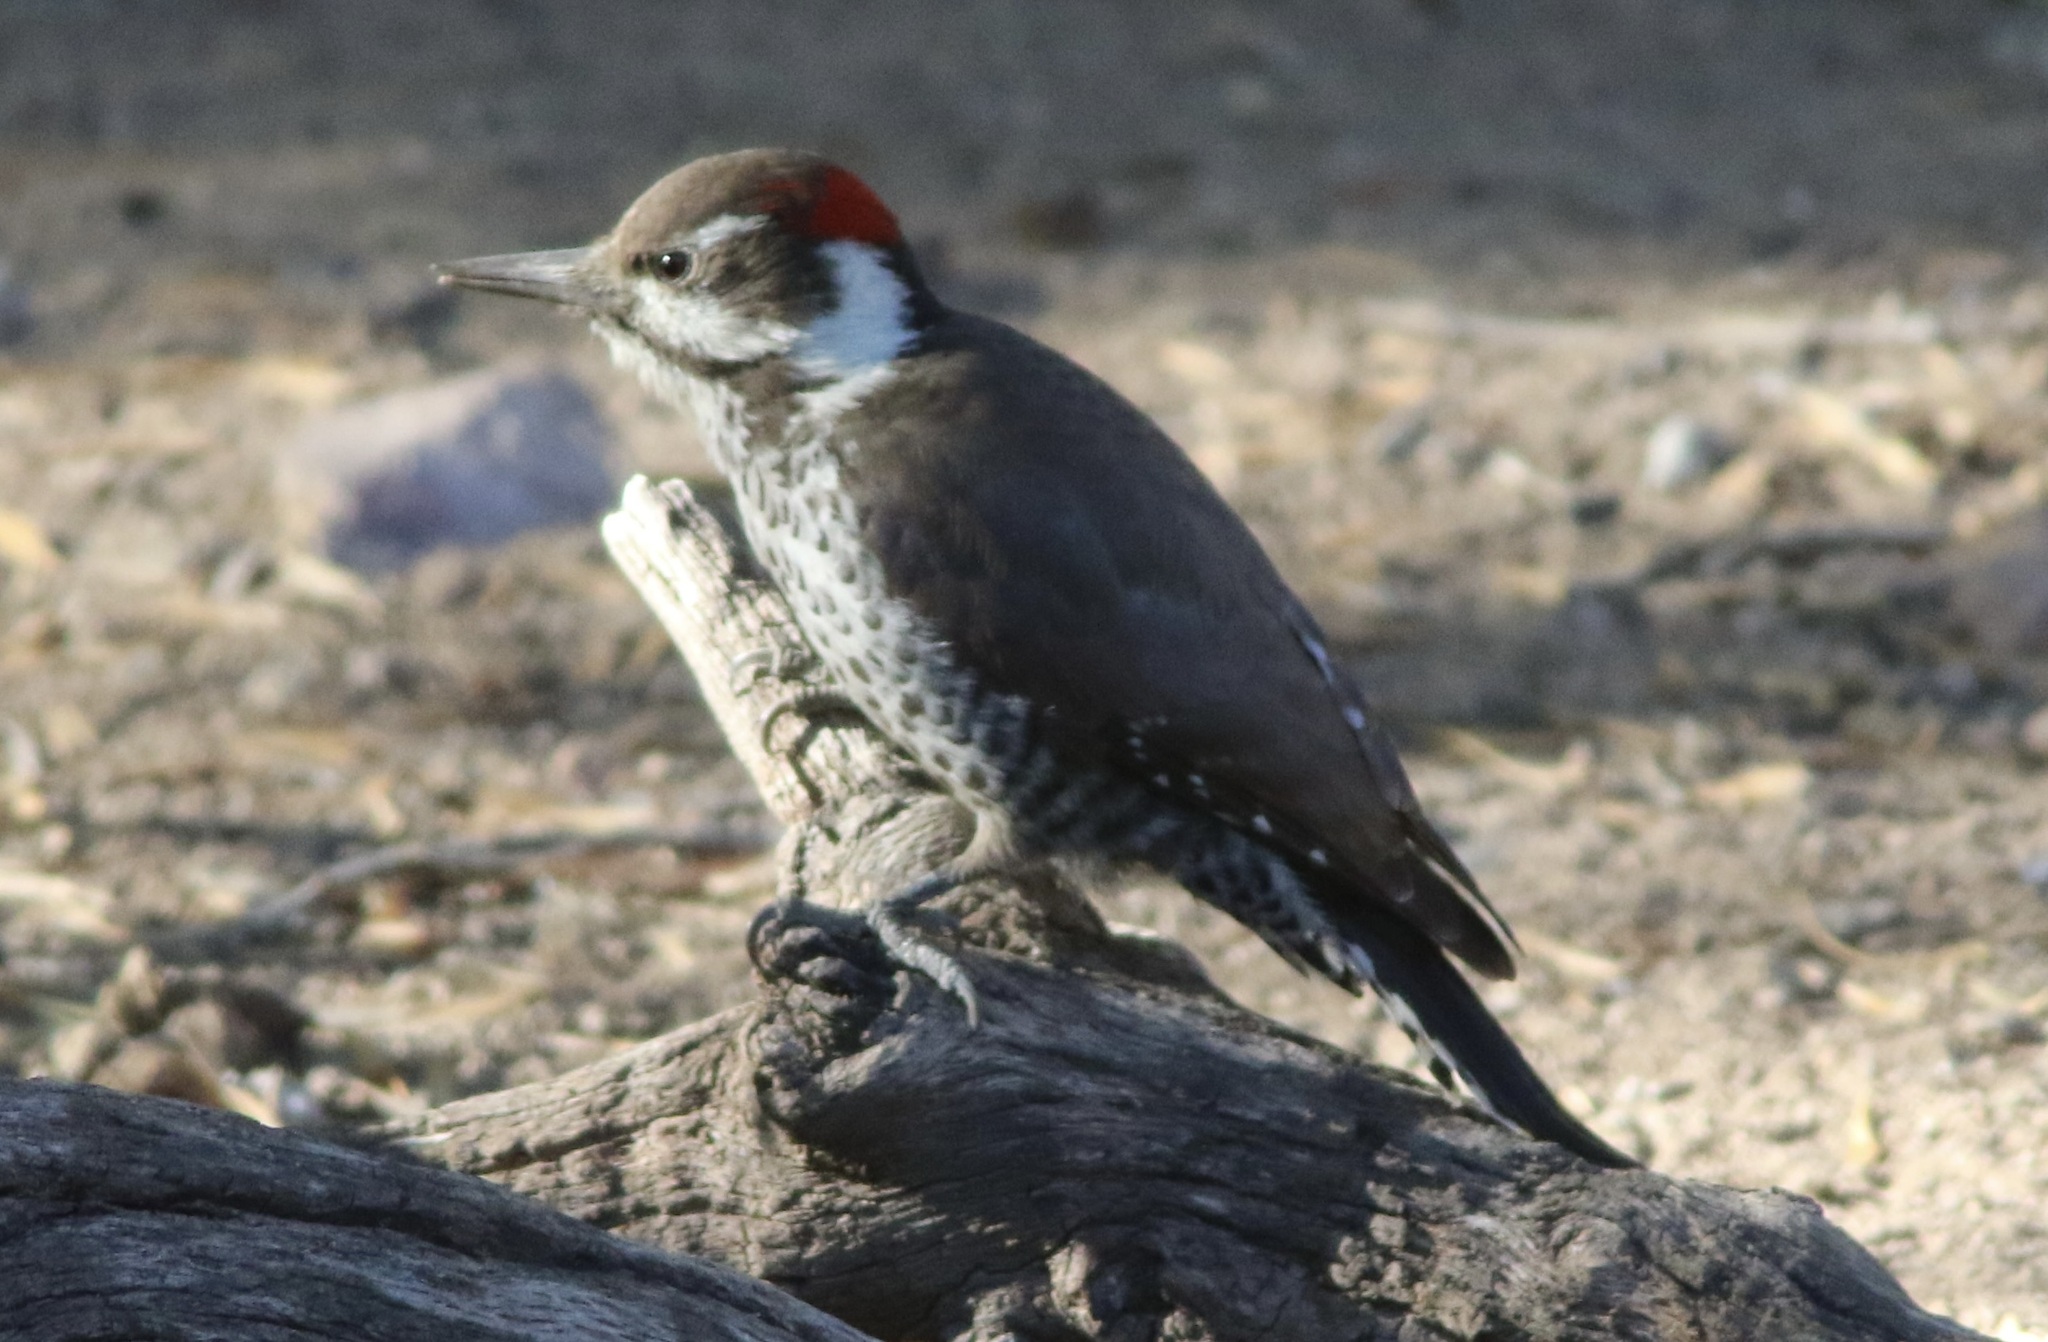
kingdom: Animalia
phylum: Chordata
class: Aves
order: Piciformes
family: Picidae
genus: Leuconotopicus
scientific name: Leuconotopicus arizonae
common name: Arizona woodpecker
